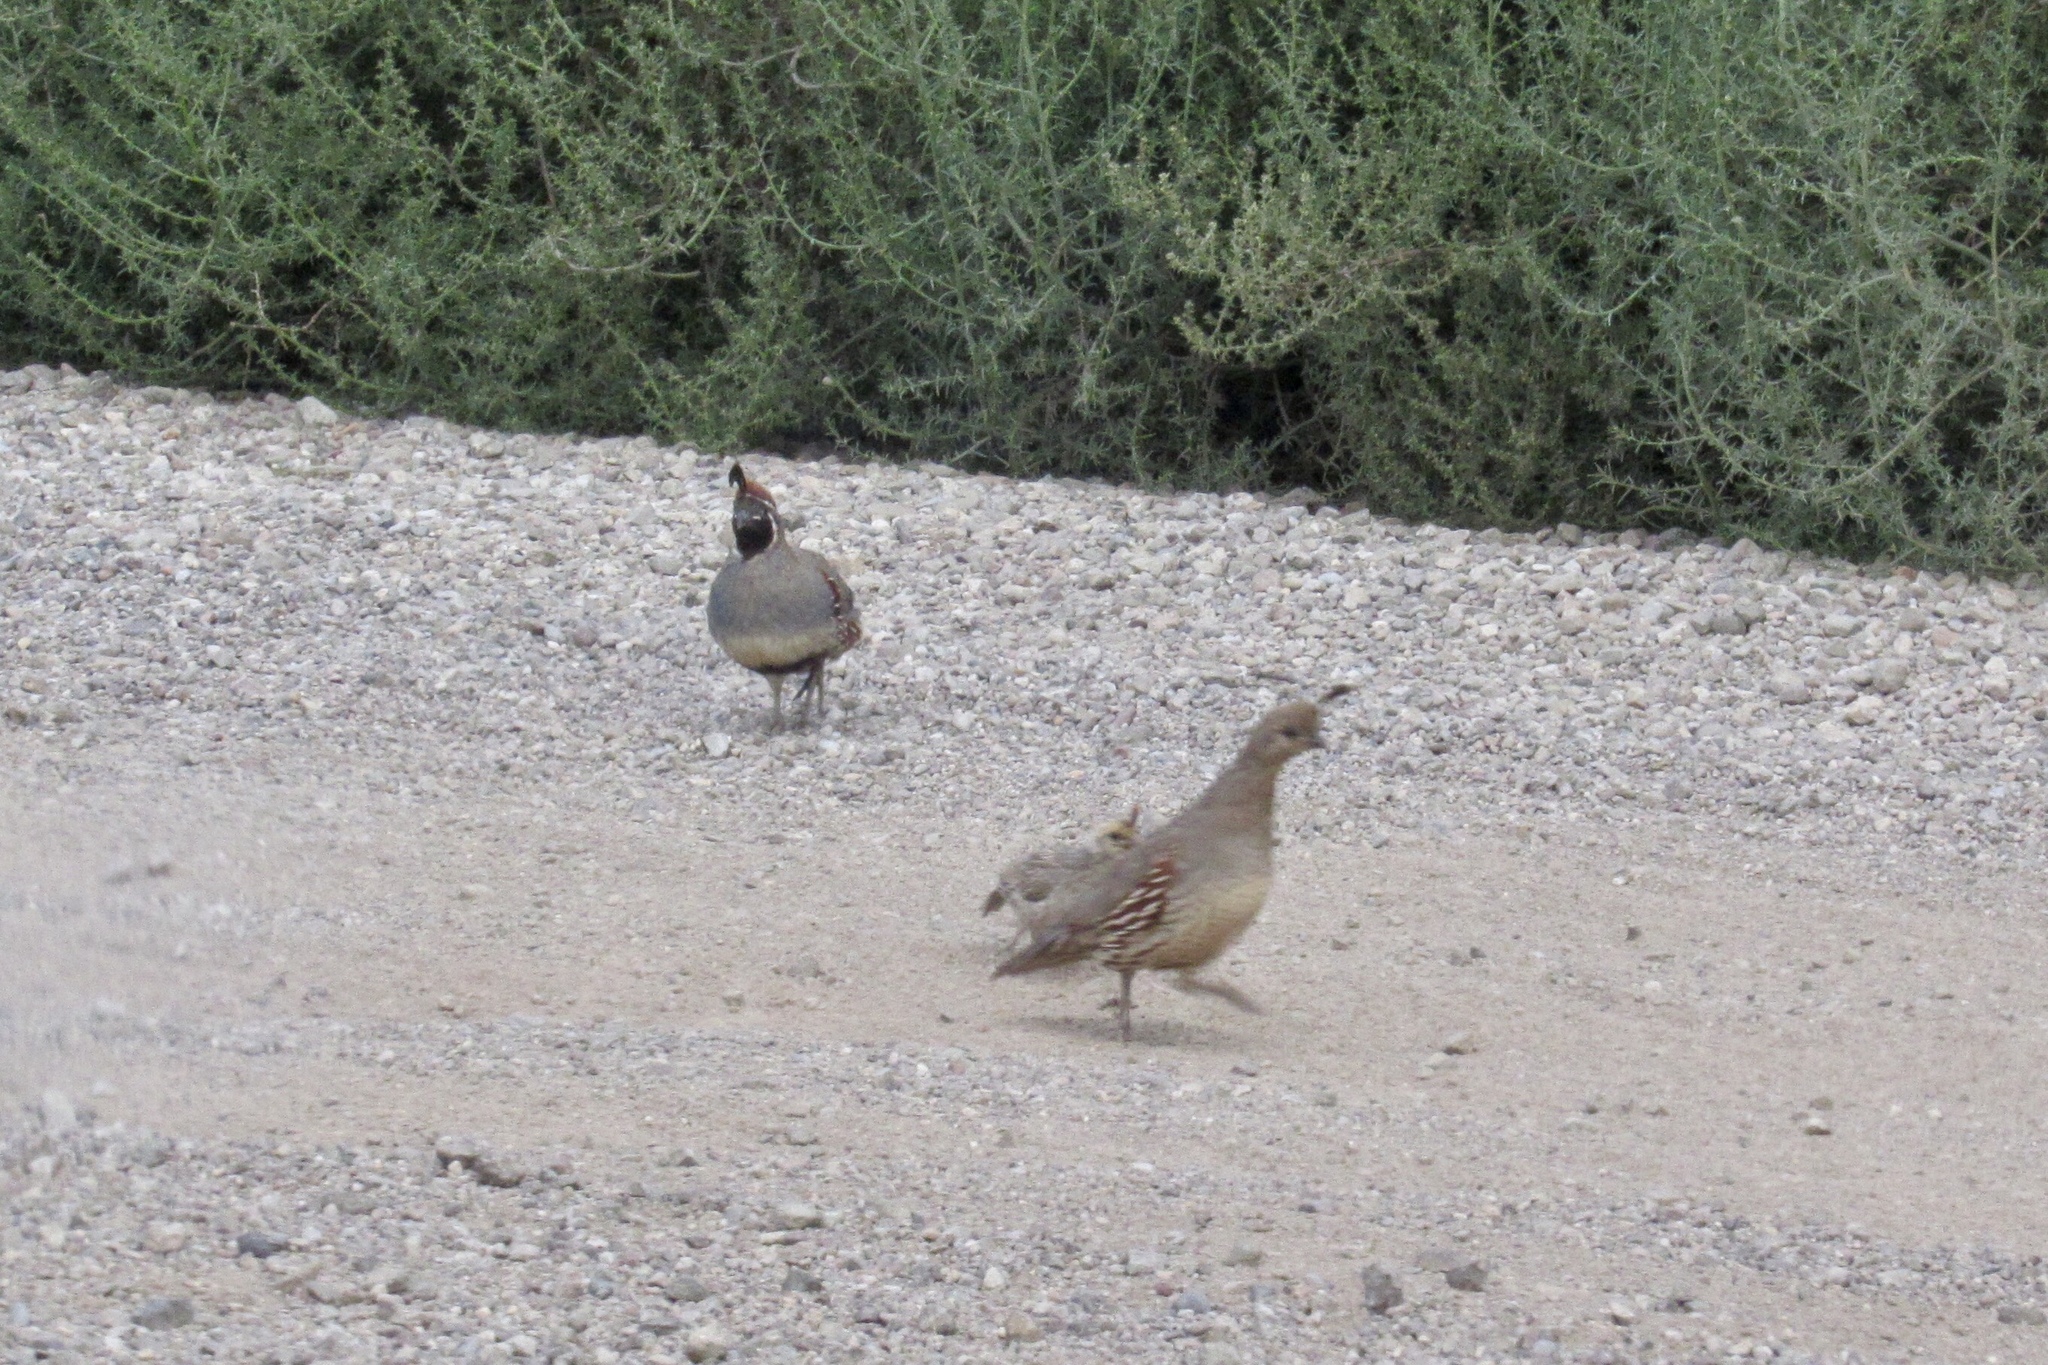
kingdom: Animalia
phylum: Chordata
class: Aves
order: Galliformes
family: Odontophoridae
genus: Callipepla
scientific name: Callipepla gambelii
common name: Gambel's quail
